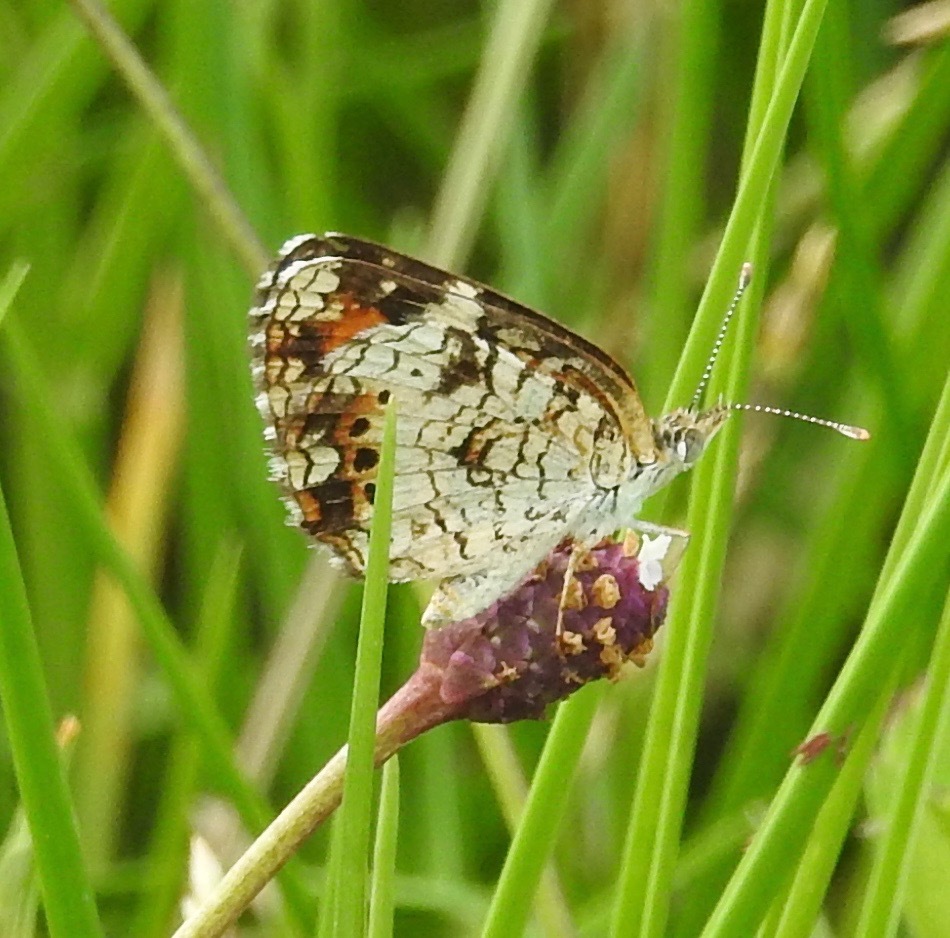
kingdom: Animalia
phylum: Arthropoda
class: Insecta
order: Lepidoptera
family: Nymphalidae
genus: Phyciodes
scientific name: Phyciodes phaon
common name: Phaon crescent
